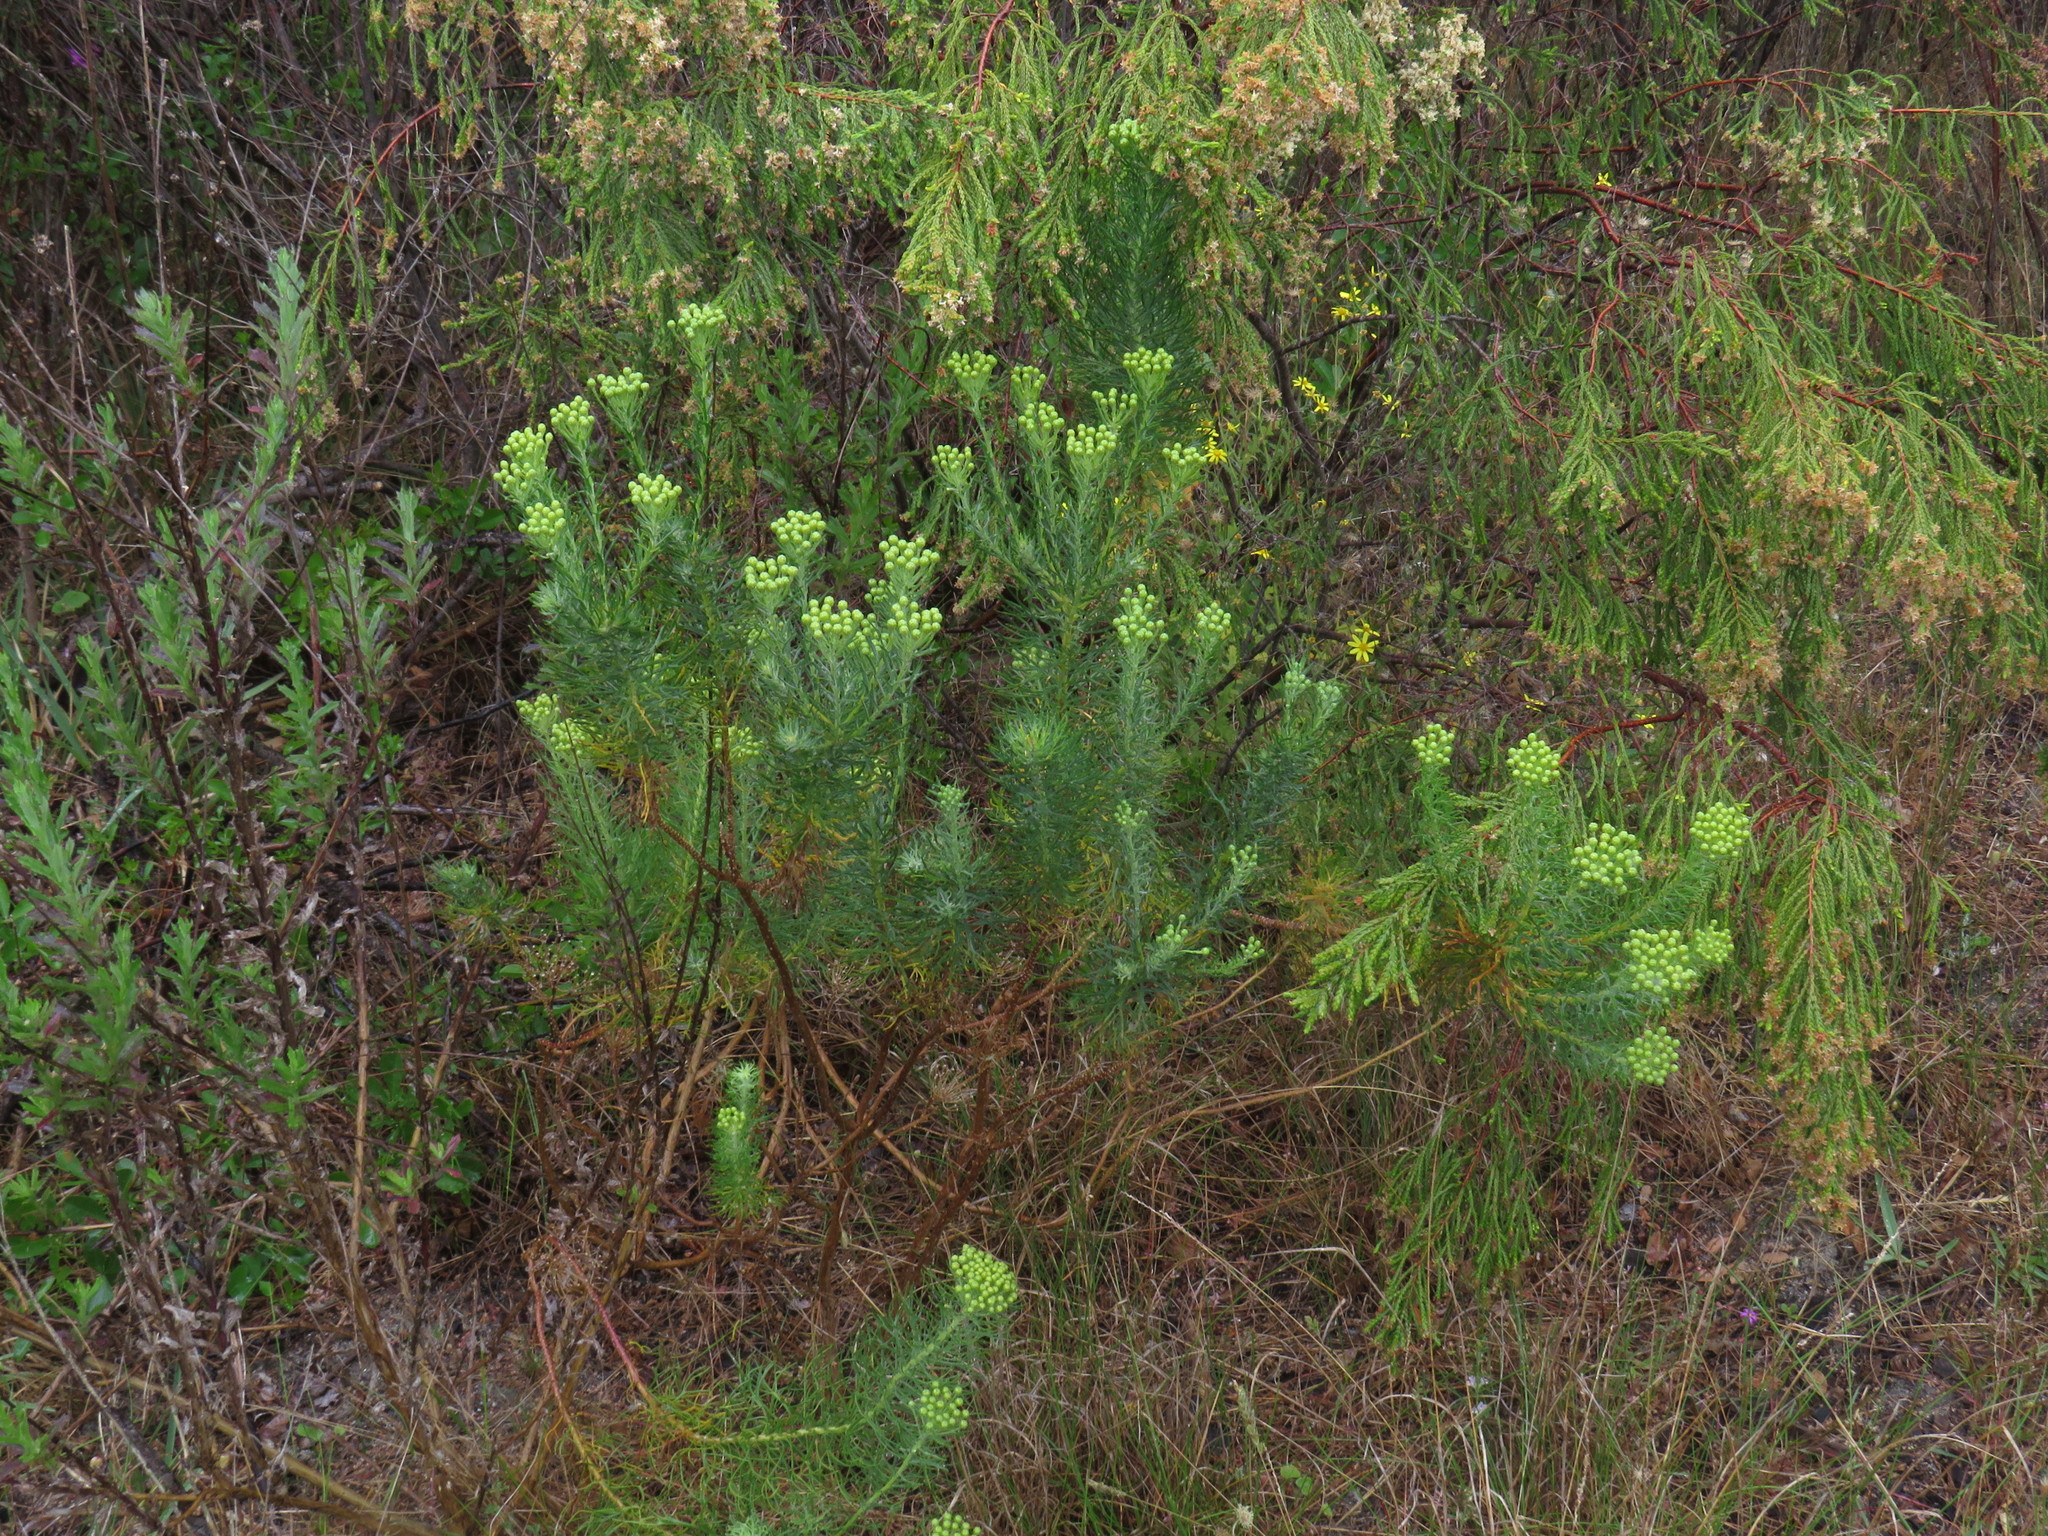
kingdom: Plantae
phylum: Tracheophyta
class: Magnoliopsida
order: Asterales
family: Asteraceae
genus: Athanasia
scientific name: Athanasia crithmifolia
